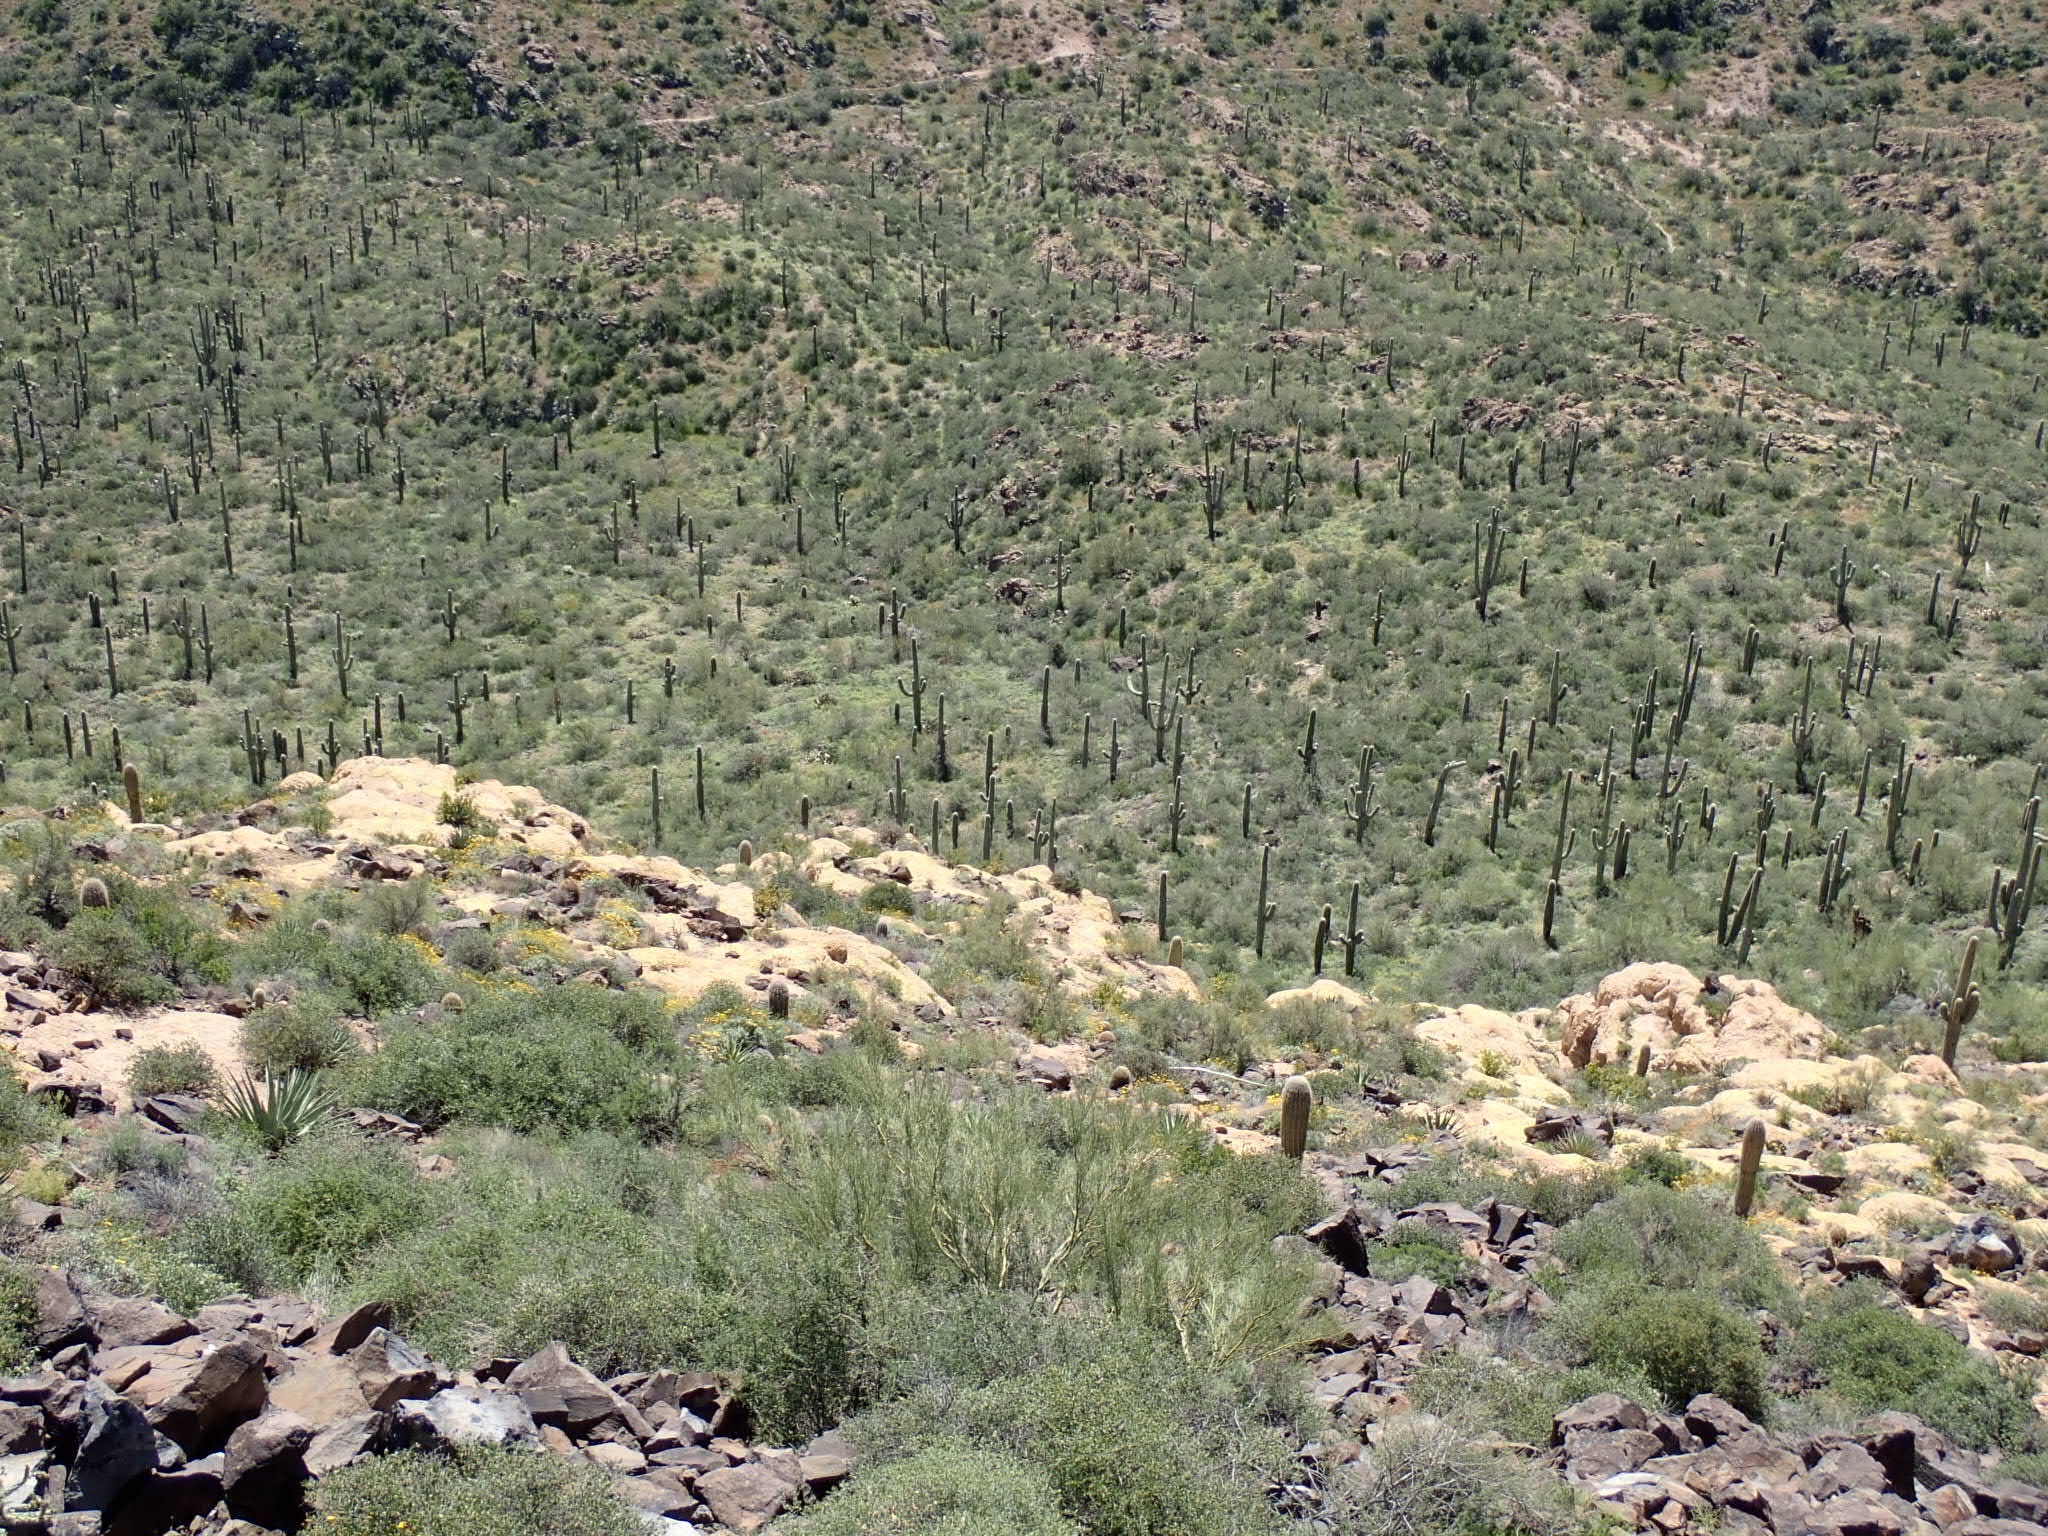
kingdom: Plantae
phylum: Tracheophyta
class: Magnoliopsida
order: Caryophyllales
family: Cactaceae
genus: Carnegiea
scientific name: Carnegiea gigantea
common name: Saguaro
